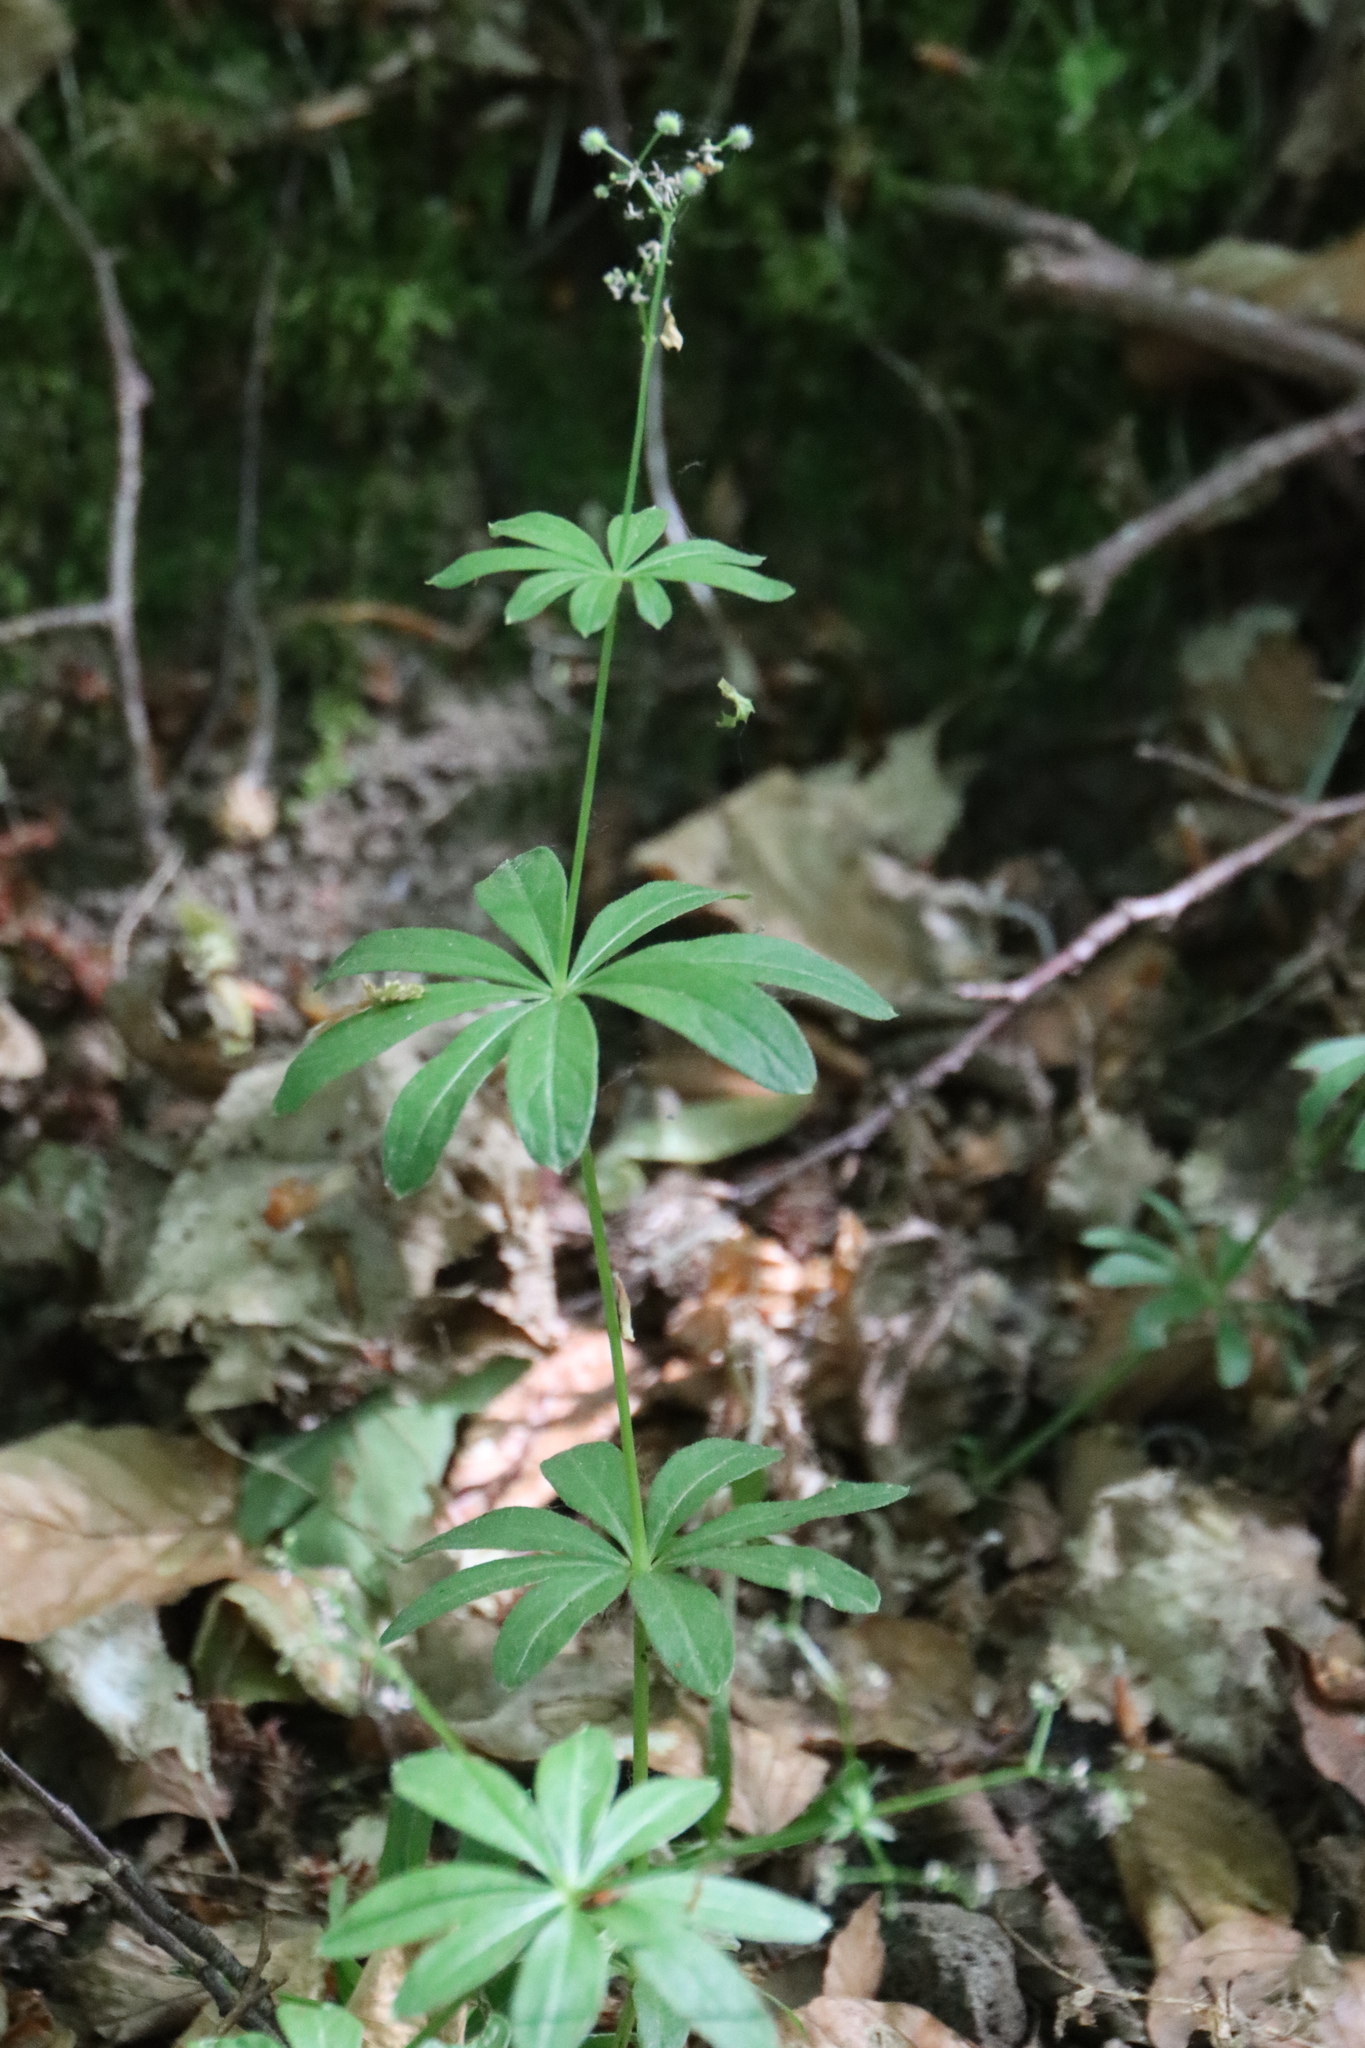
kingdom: Plantae
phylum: Tracheophyta
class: Magnoliopsida
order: Gentianales
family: Rubiaceae
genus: Galium
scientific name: Galium odoratum
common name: Sweet woodruff
